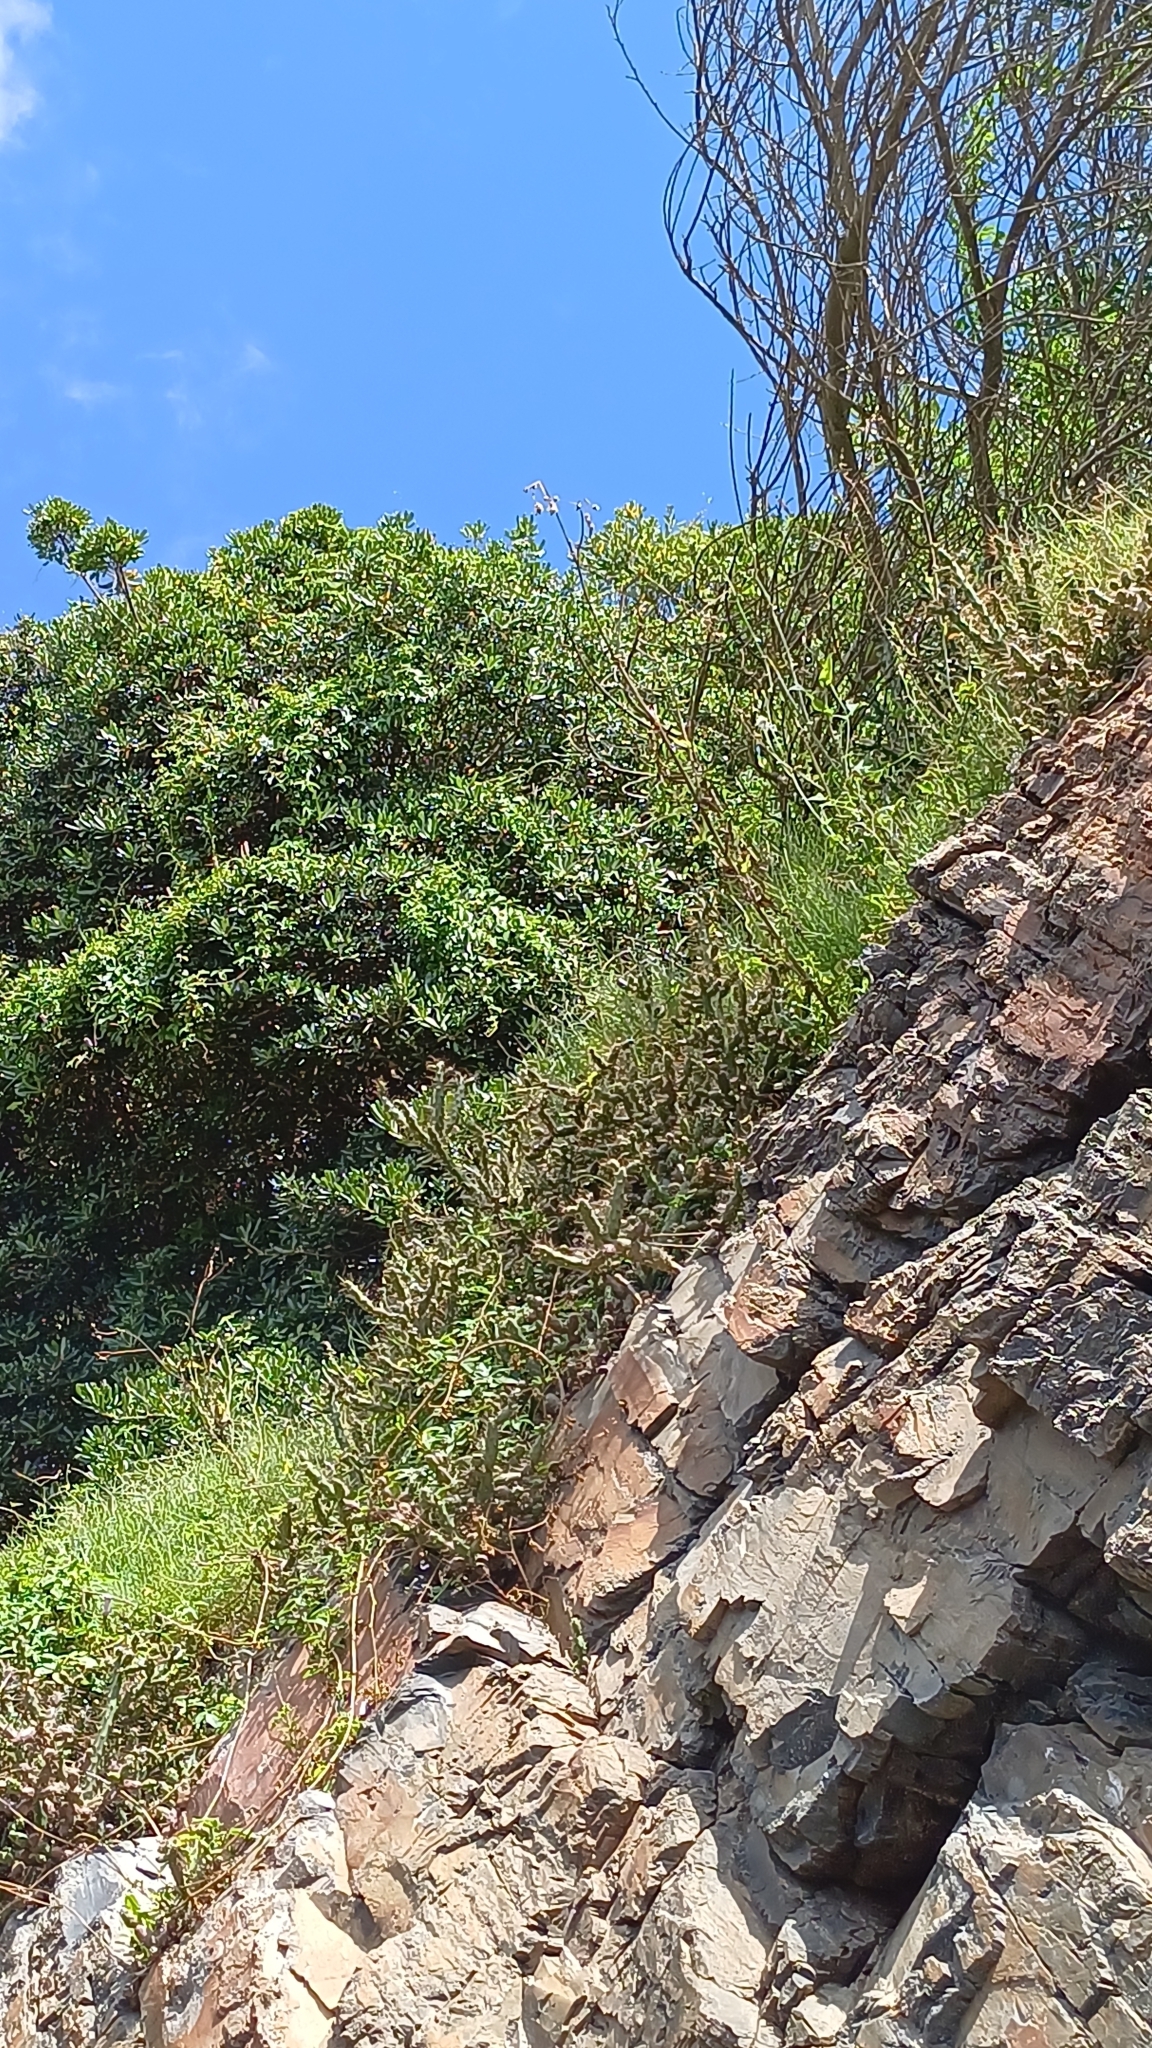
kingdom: Plantae
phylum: Tracheophyta
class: Magnoliopsida
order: Caryophyllales
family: Cactaceae
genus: Opuntia
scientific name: Opuntia aurantiaca
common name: Jointed pricklypear
